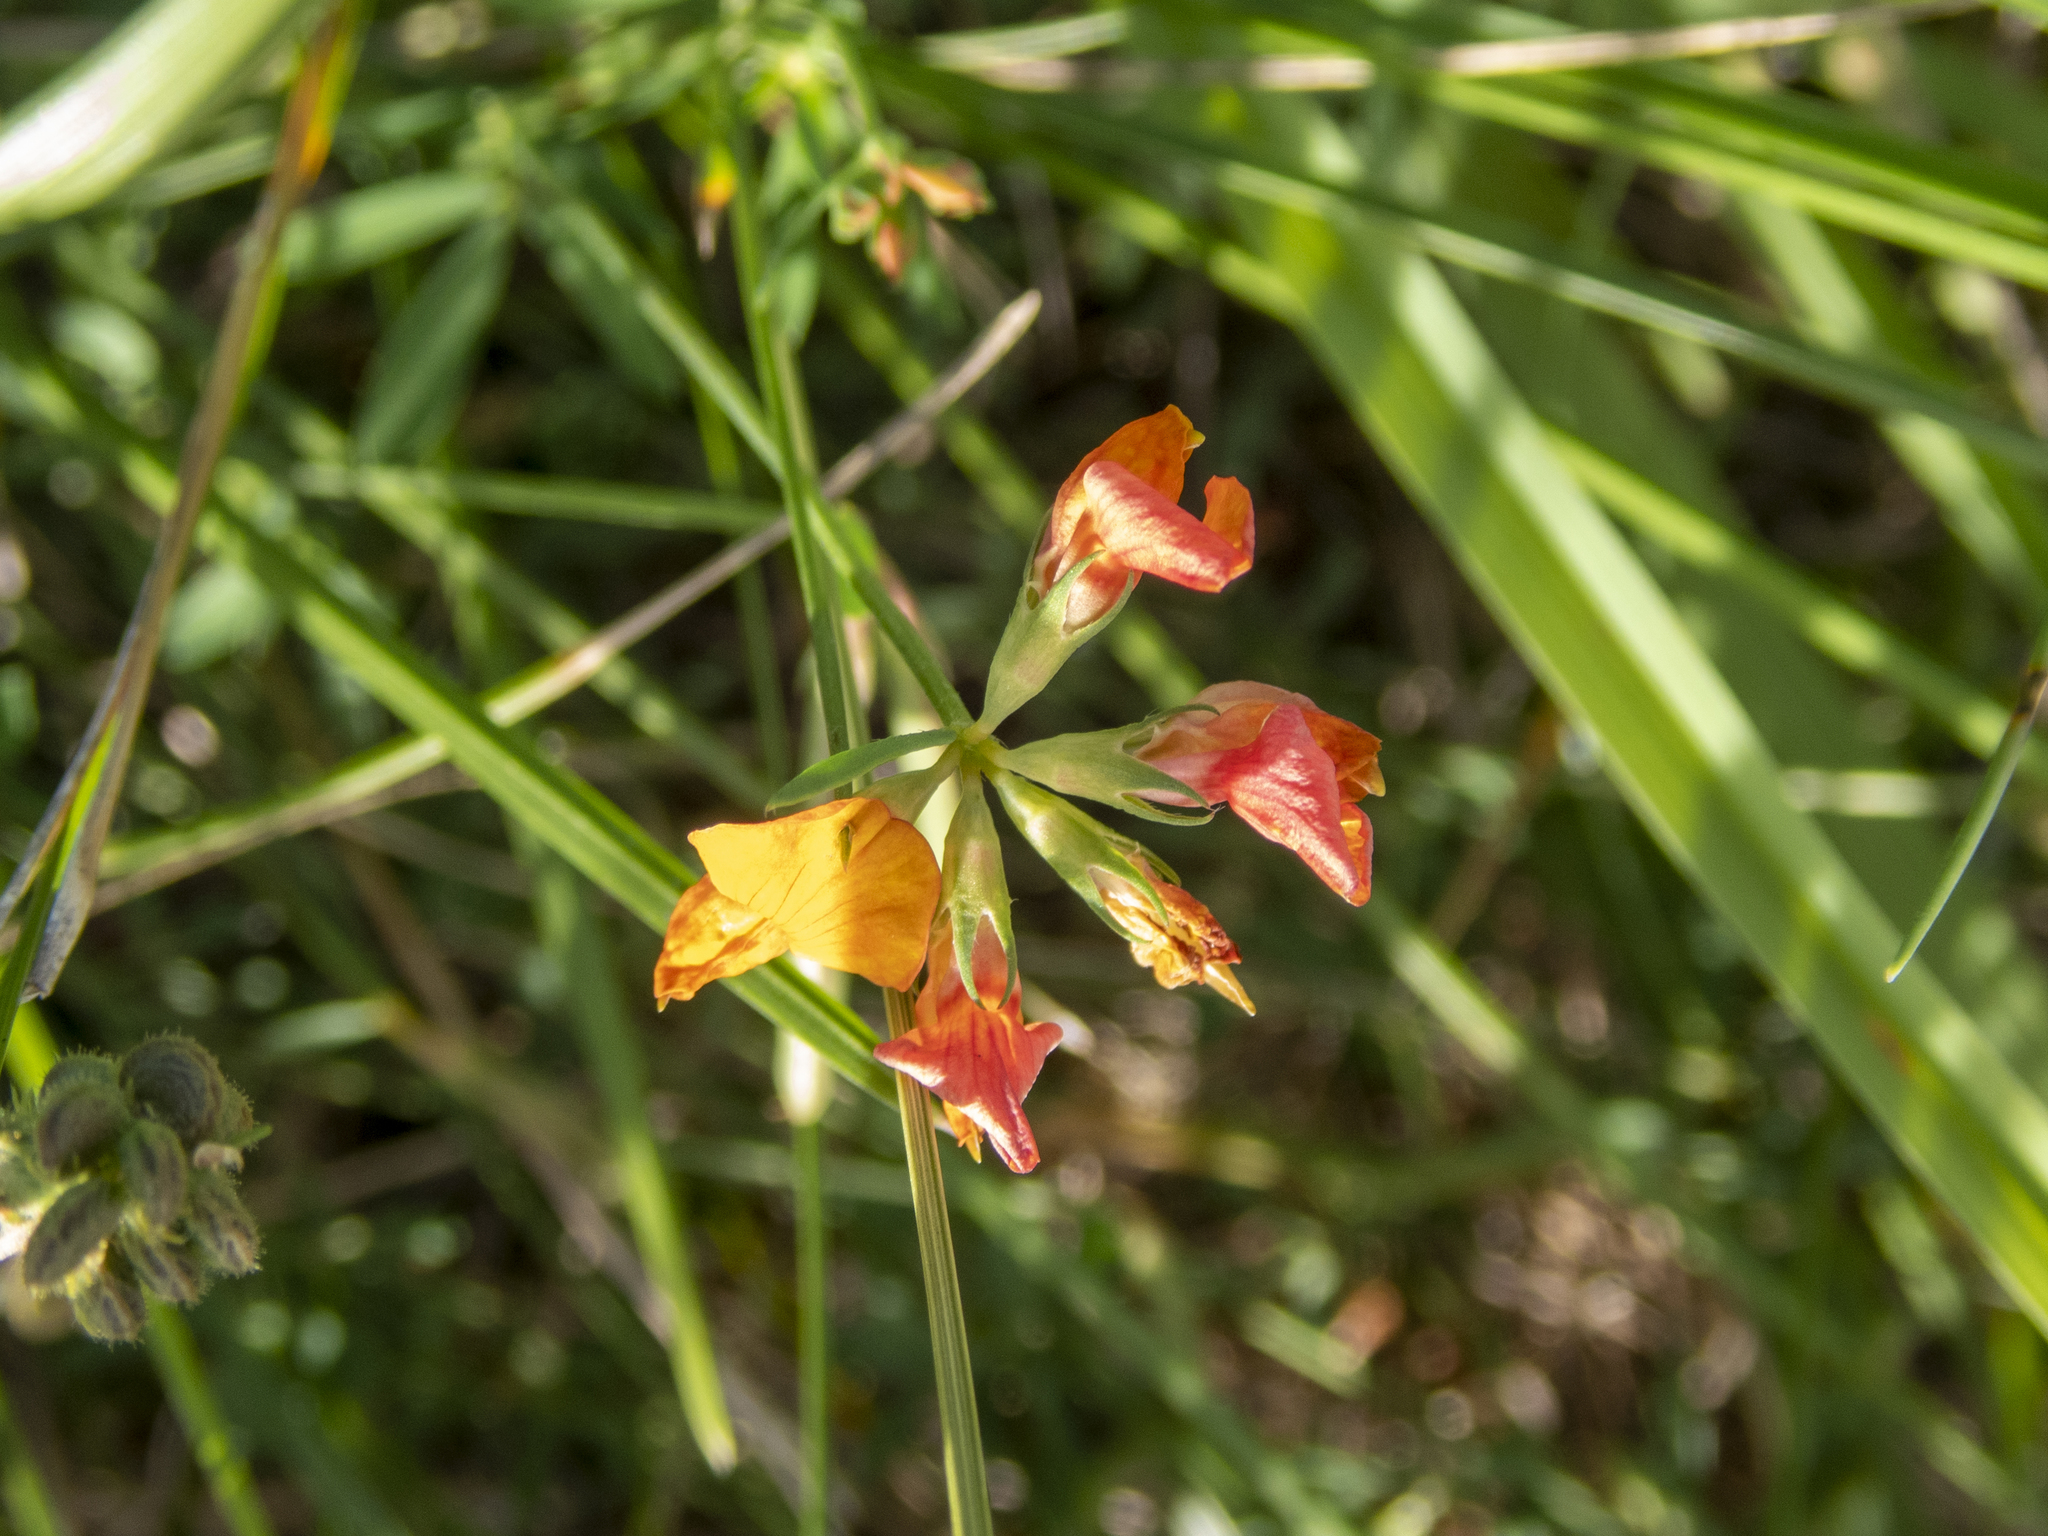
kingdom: Plantae
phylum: Tracheophyta
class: Magnoliopsida
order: Fabales
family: Fabaceae
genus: Lotus
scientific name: Lotus corniculatus
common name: Common bird's-foot-trefoil
